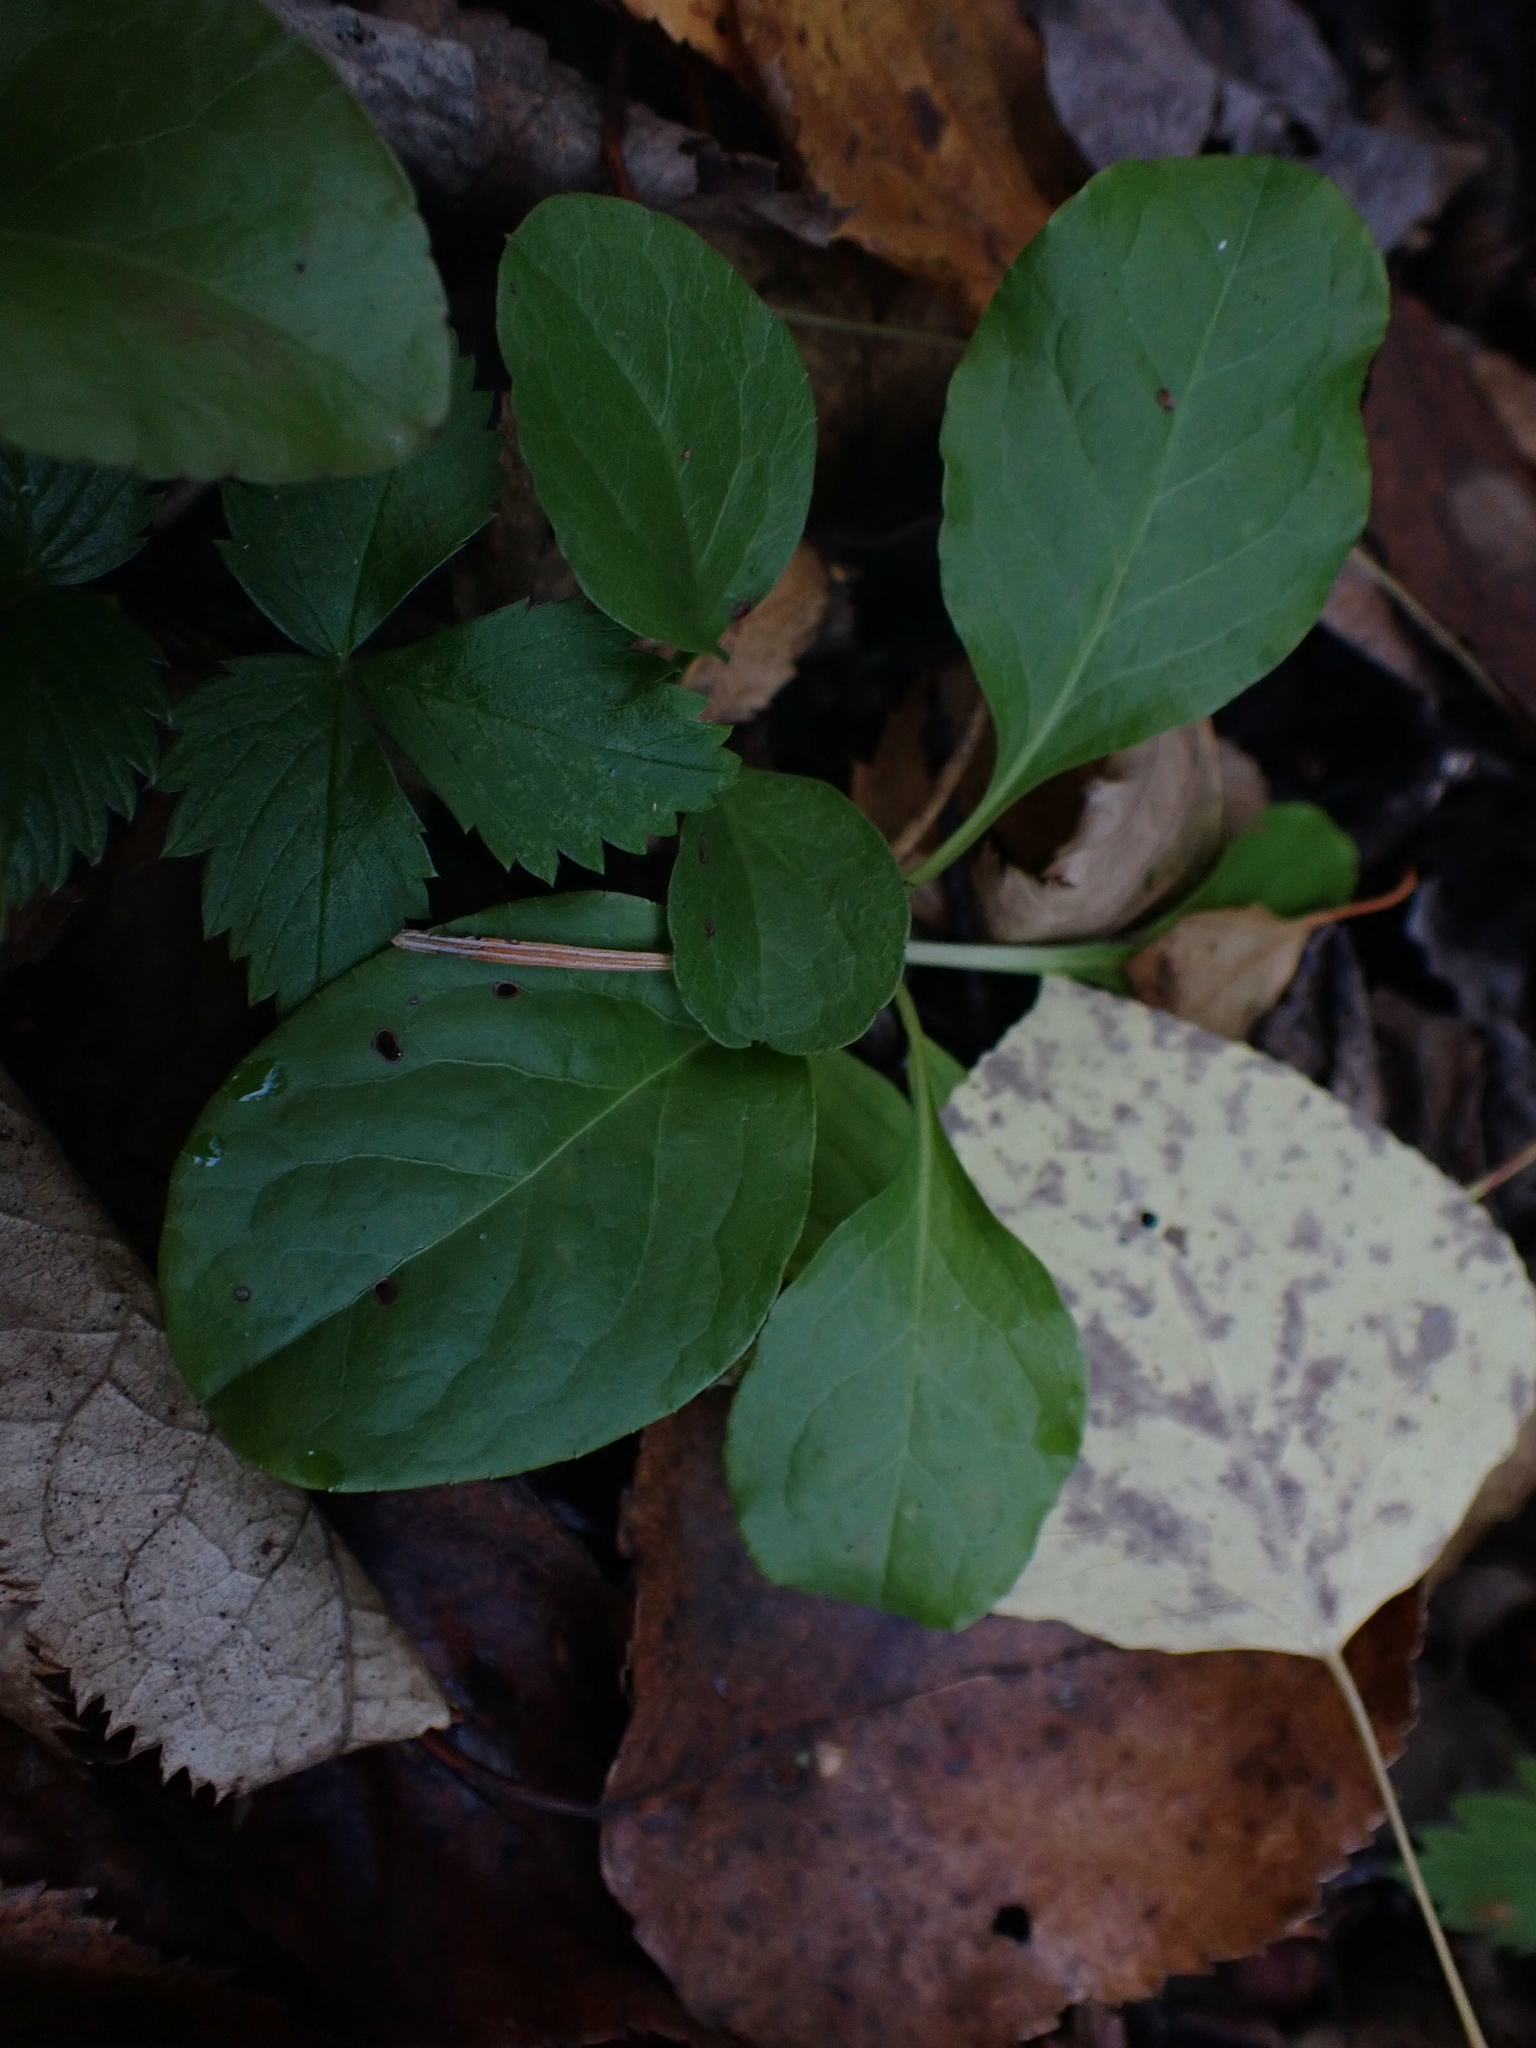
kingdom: Plantae
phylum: Tracheophyta
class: Magnoliopsida
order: Ericales
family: Ericaceae
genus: Pyrola
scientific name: Pyrola elliptica
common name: Shinleaf
